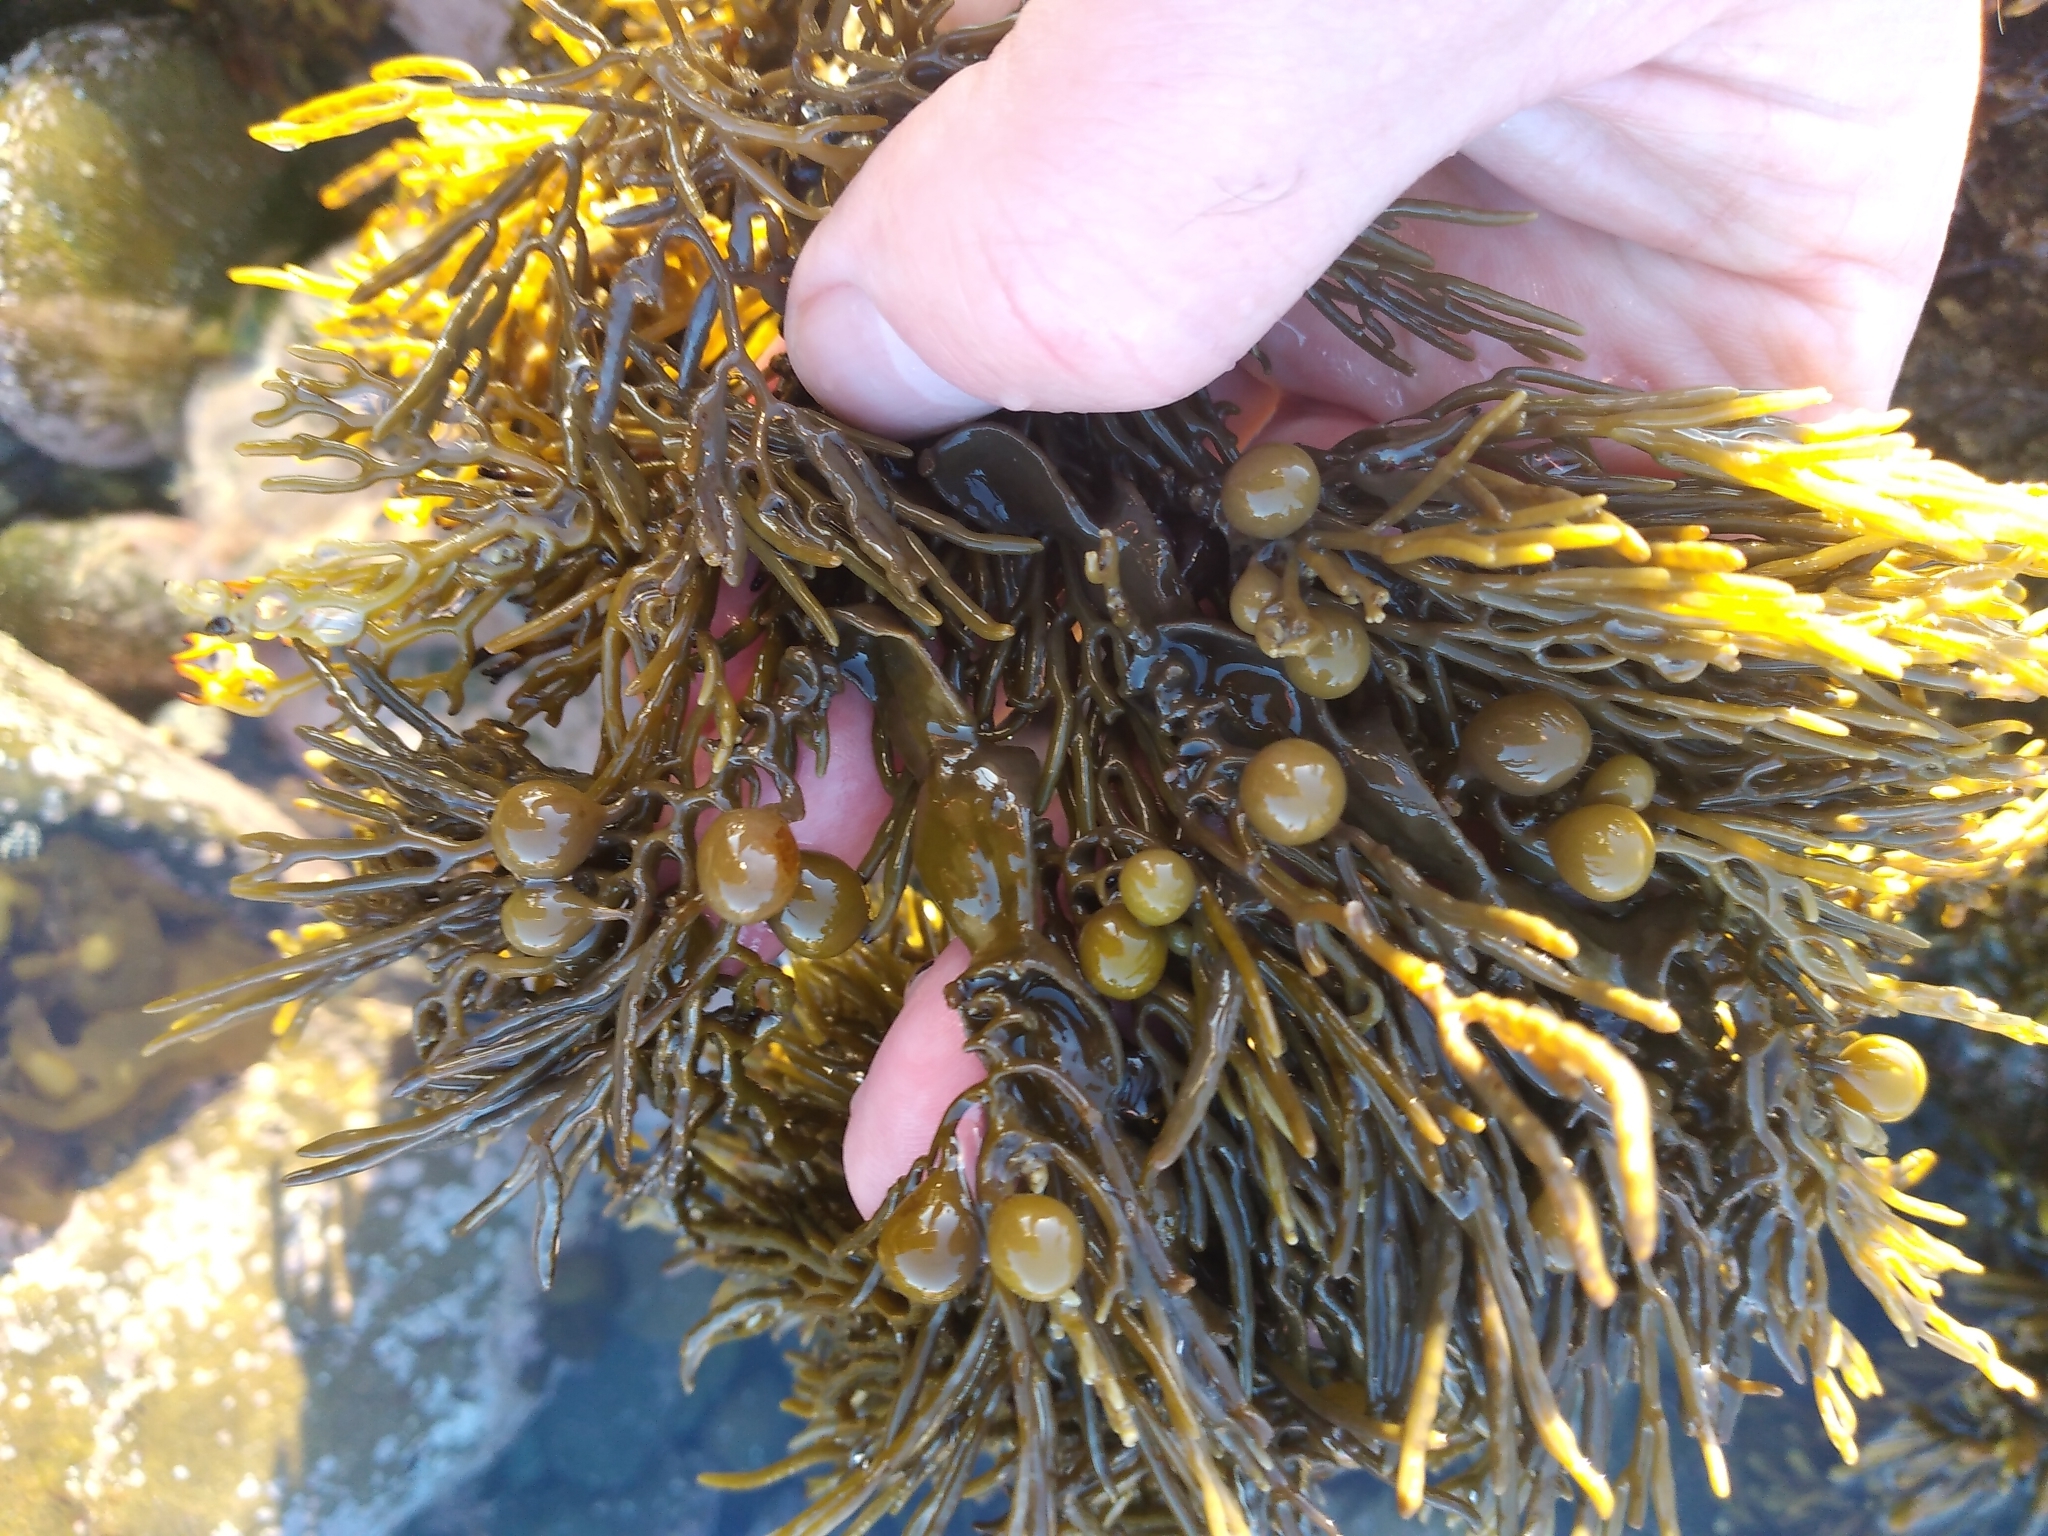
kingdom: Chromista
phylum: Ochrophyta
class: Phaeophyceae
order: Fucales
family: Sargassaceae
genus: Cystophora
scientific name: Cystophora retroflexa
